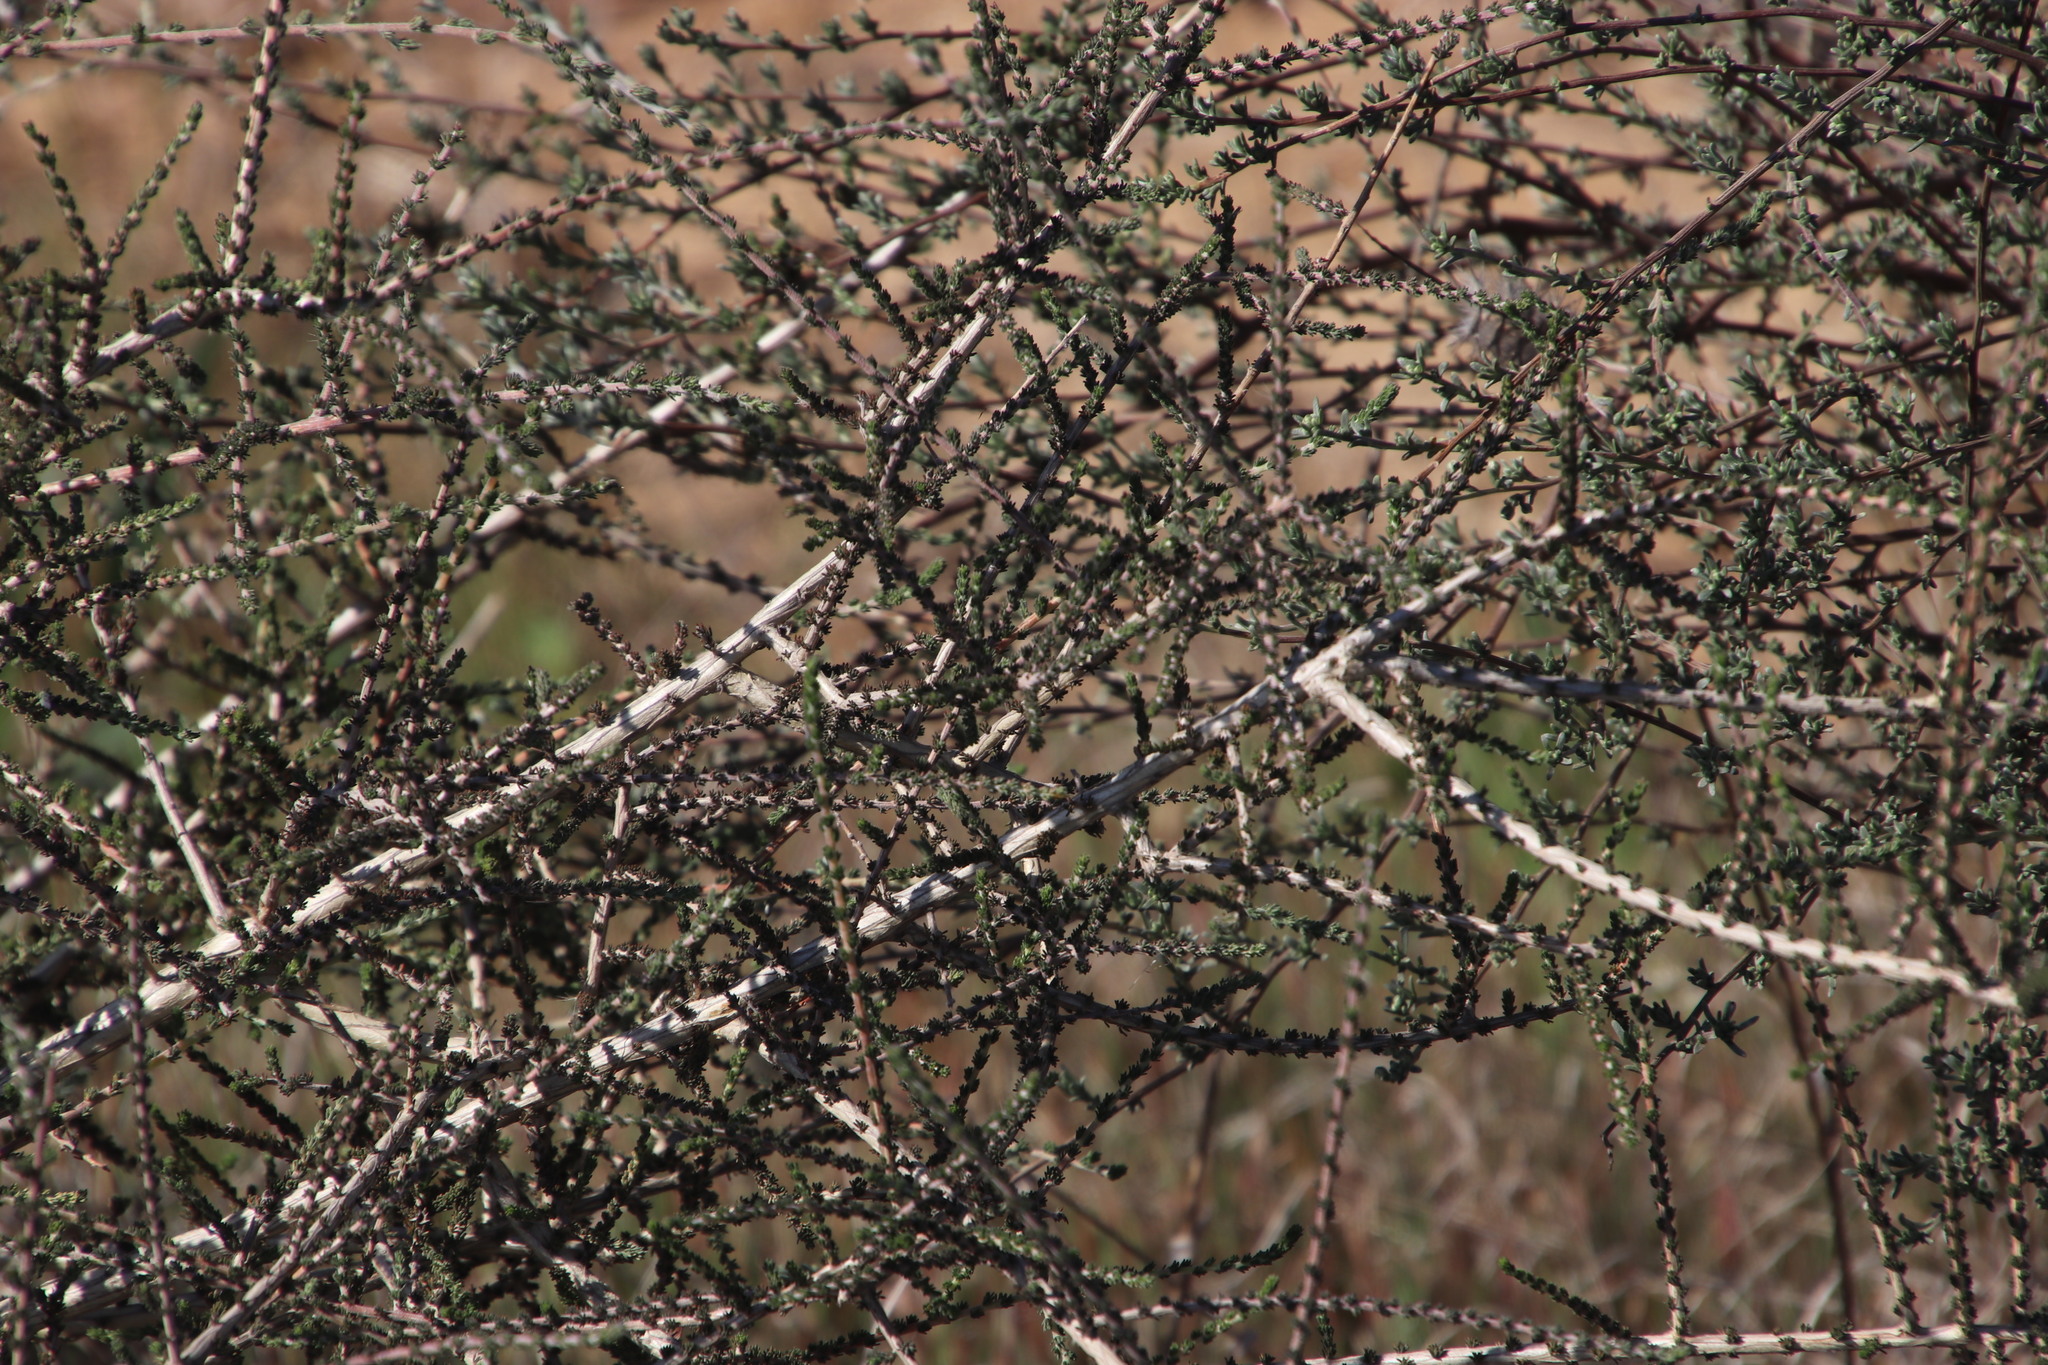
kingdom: Plantae
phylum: Tracheophyta
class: Magnoliopsida
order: Fabales
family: Fabaceae
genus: Aspalathus
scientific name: Aspalathus hispida
